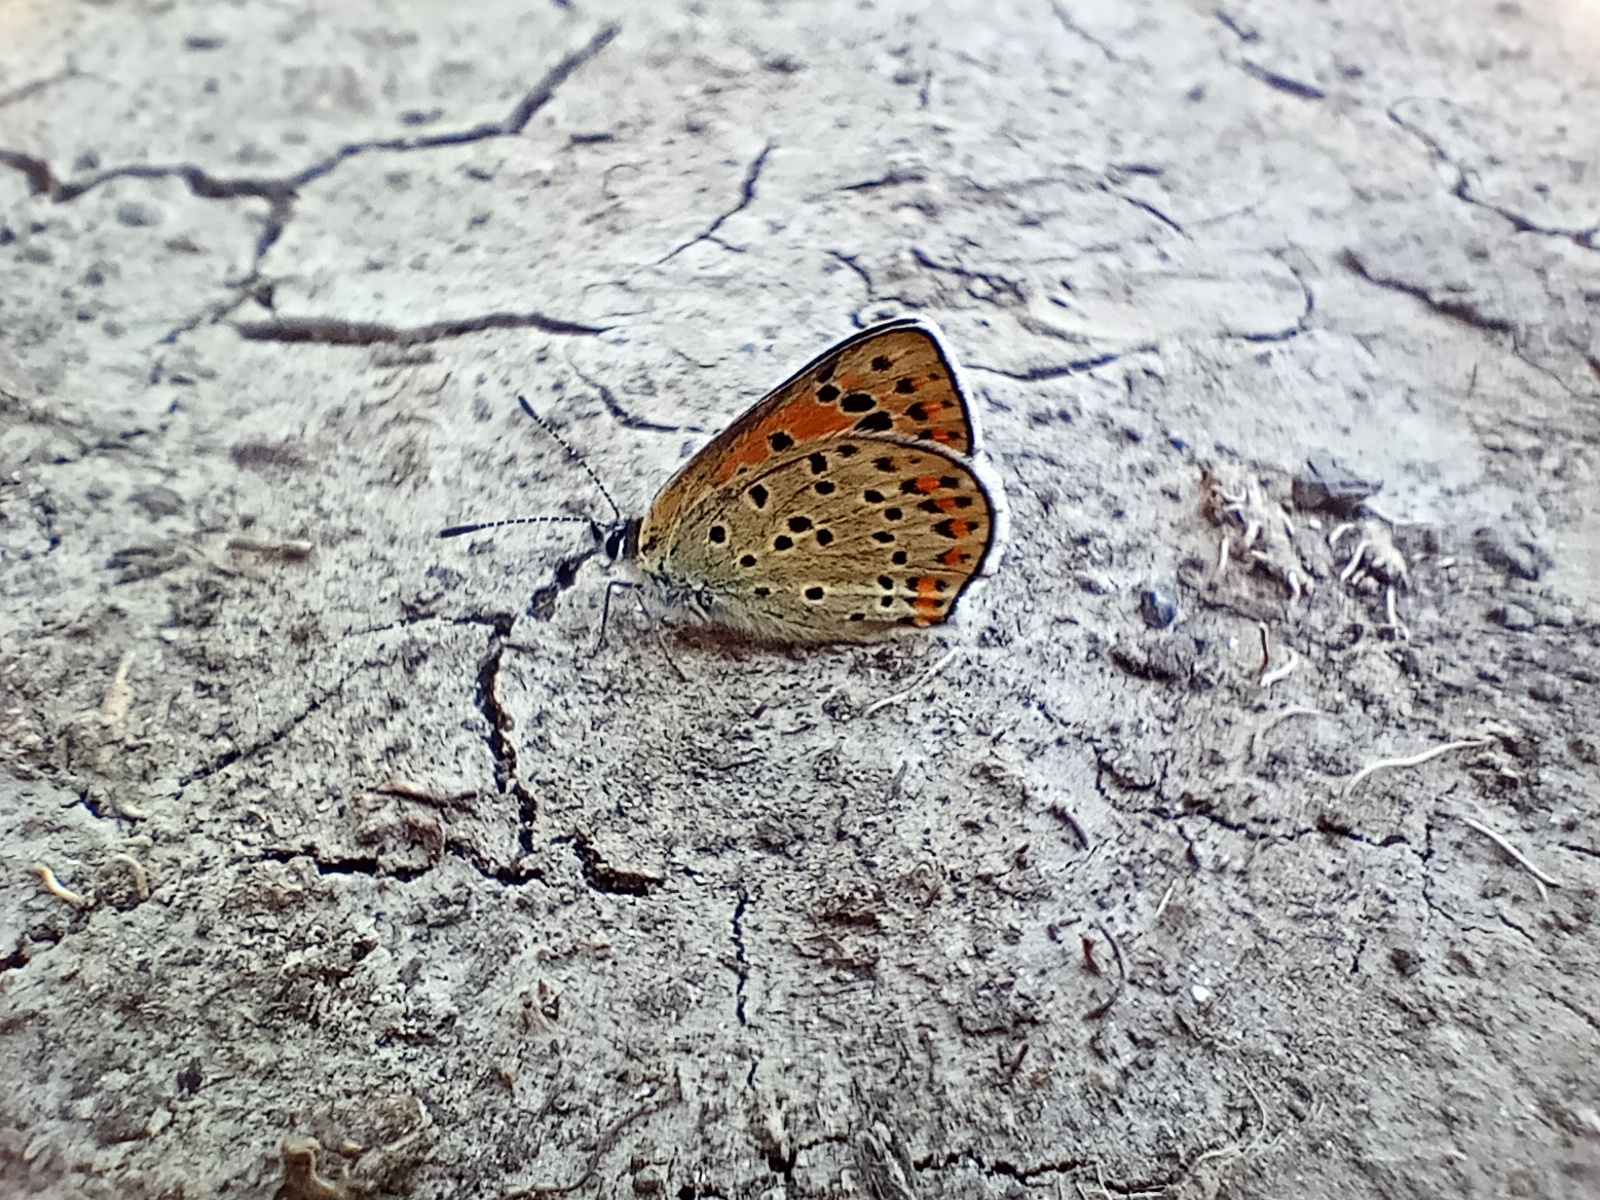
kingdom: Animalia
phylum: Arthropoda
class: Insecta
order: Lepidoptera
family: Lycaenidae
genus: Loweia
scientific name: Loweia tityrus
